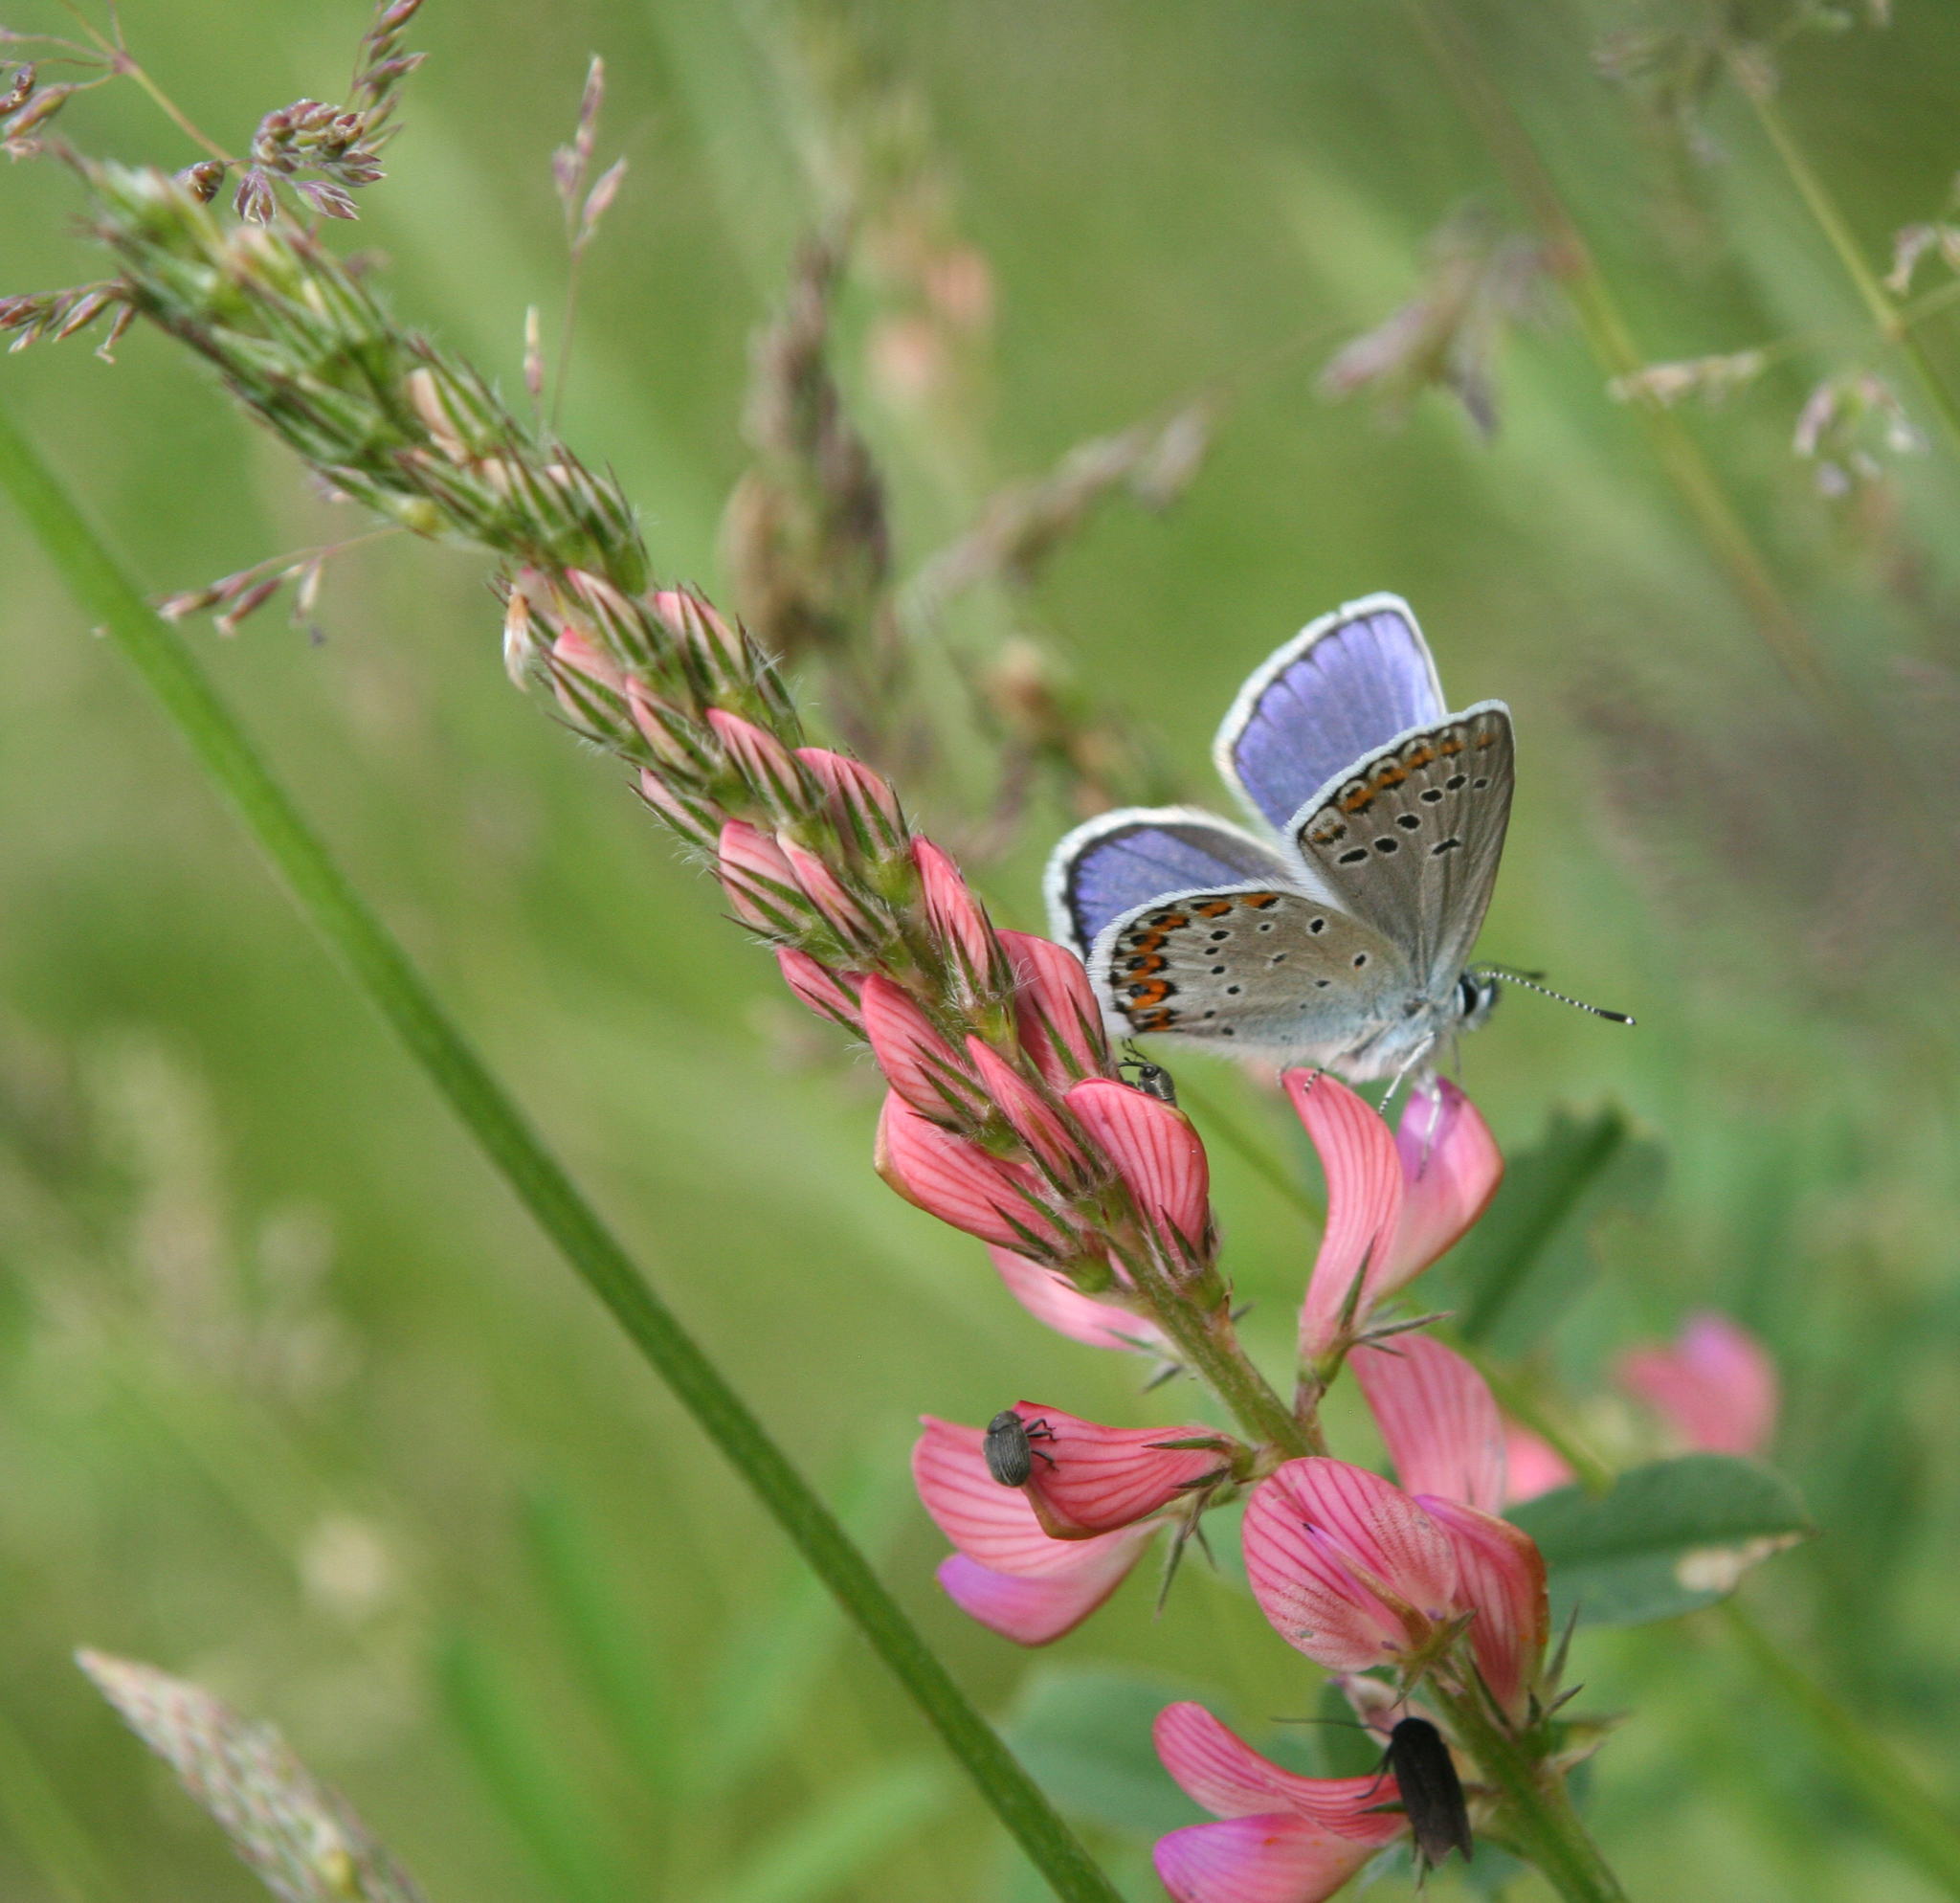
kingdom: Animalia
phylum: Arthropoda
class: Insecta
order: Lepidoptera
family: Lycaenidae
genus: Plebejus
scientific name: Plebejus argyrognomon
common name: Reverdin's blue
